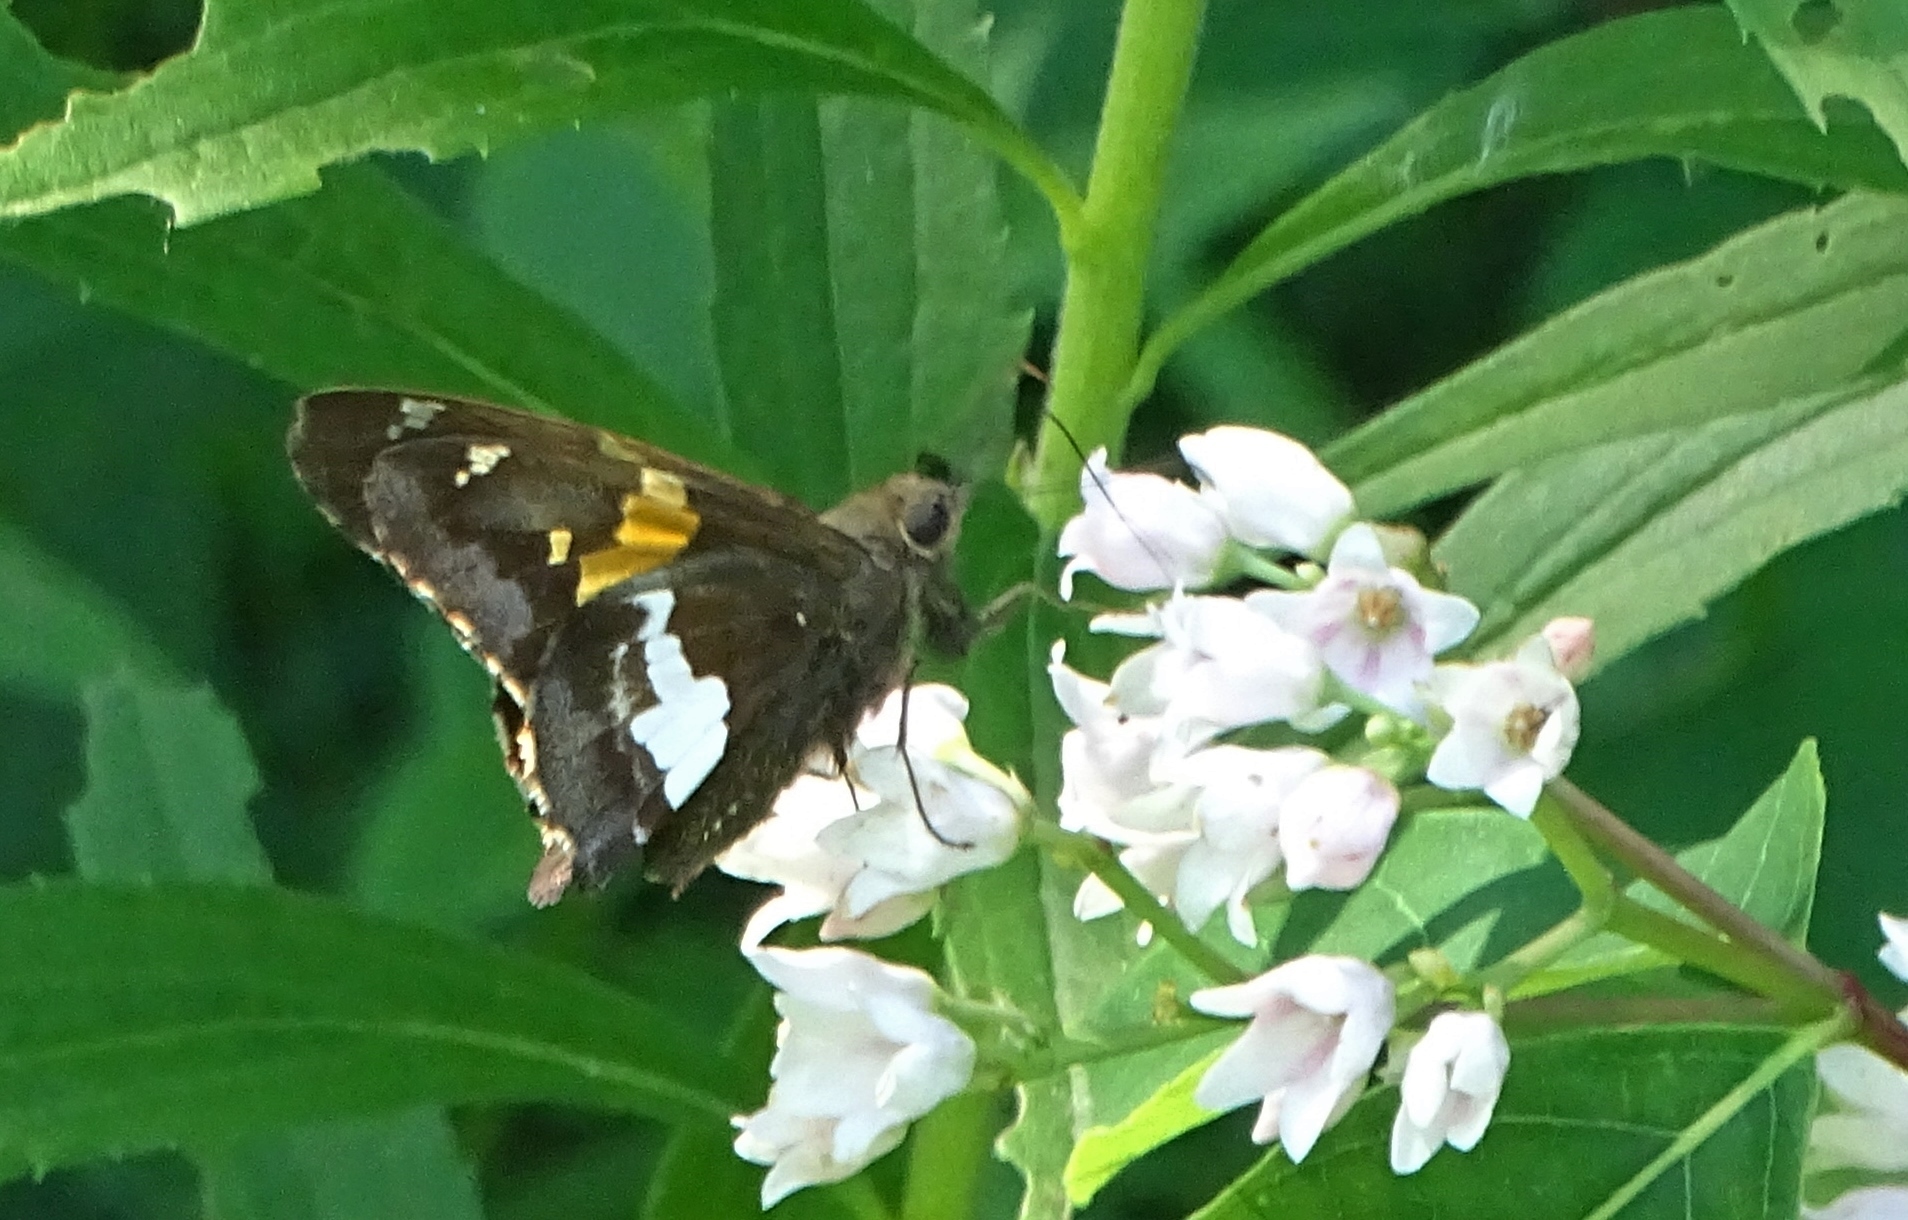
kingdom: Animalia
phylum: Arthropoda
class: Insecta
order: Lepidoptera
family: Hesperiidae
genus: Epargyreus
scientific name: Epargyreus clarus
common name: Silver-spotted skipper
